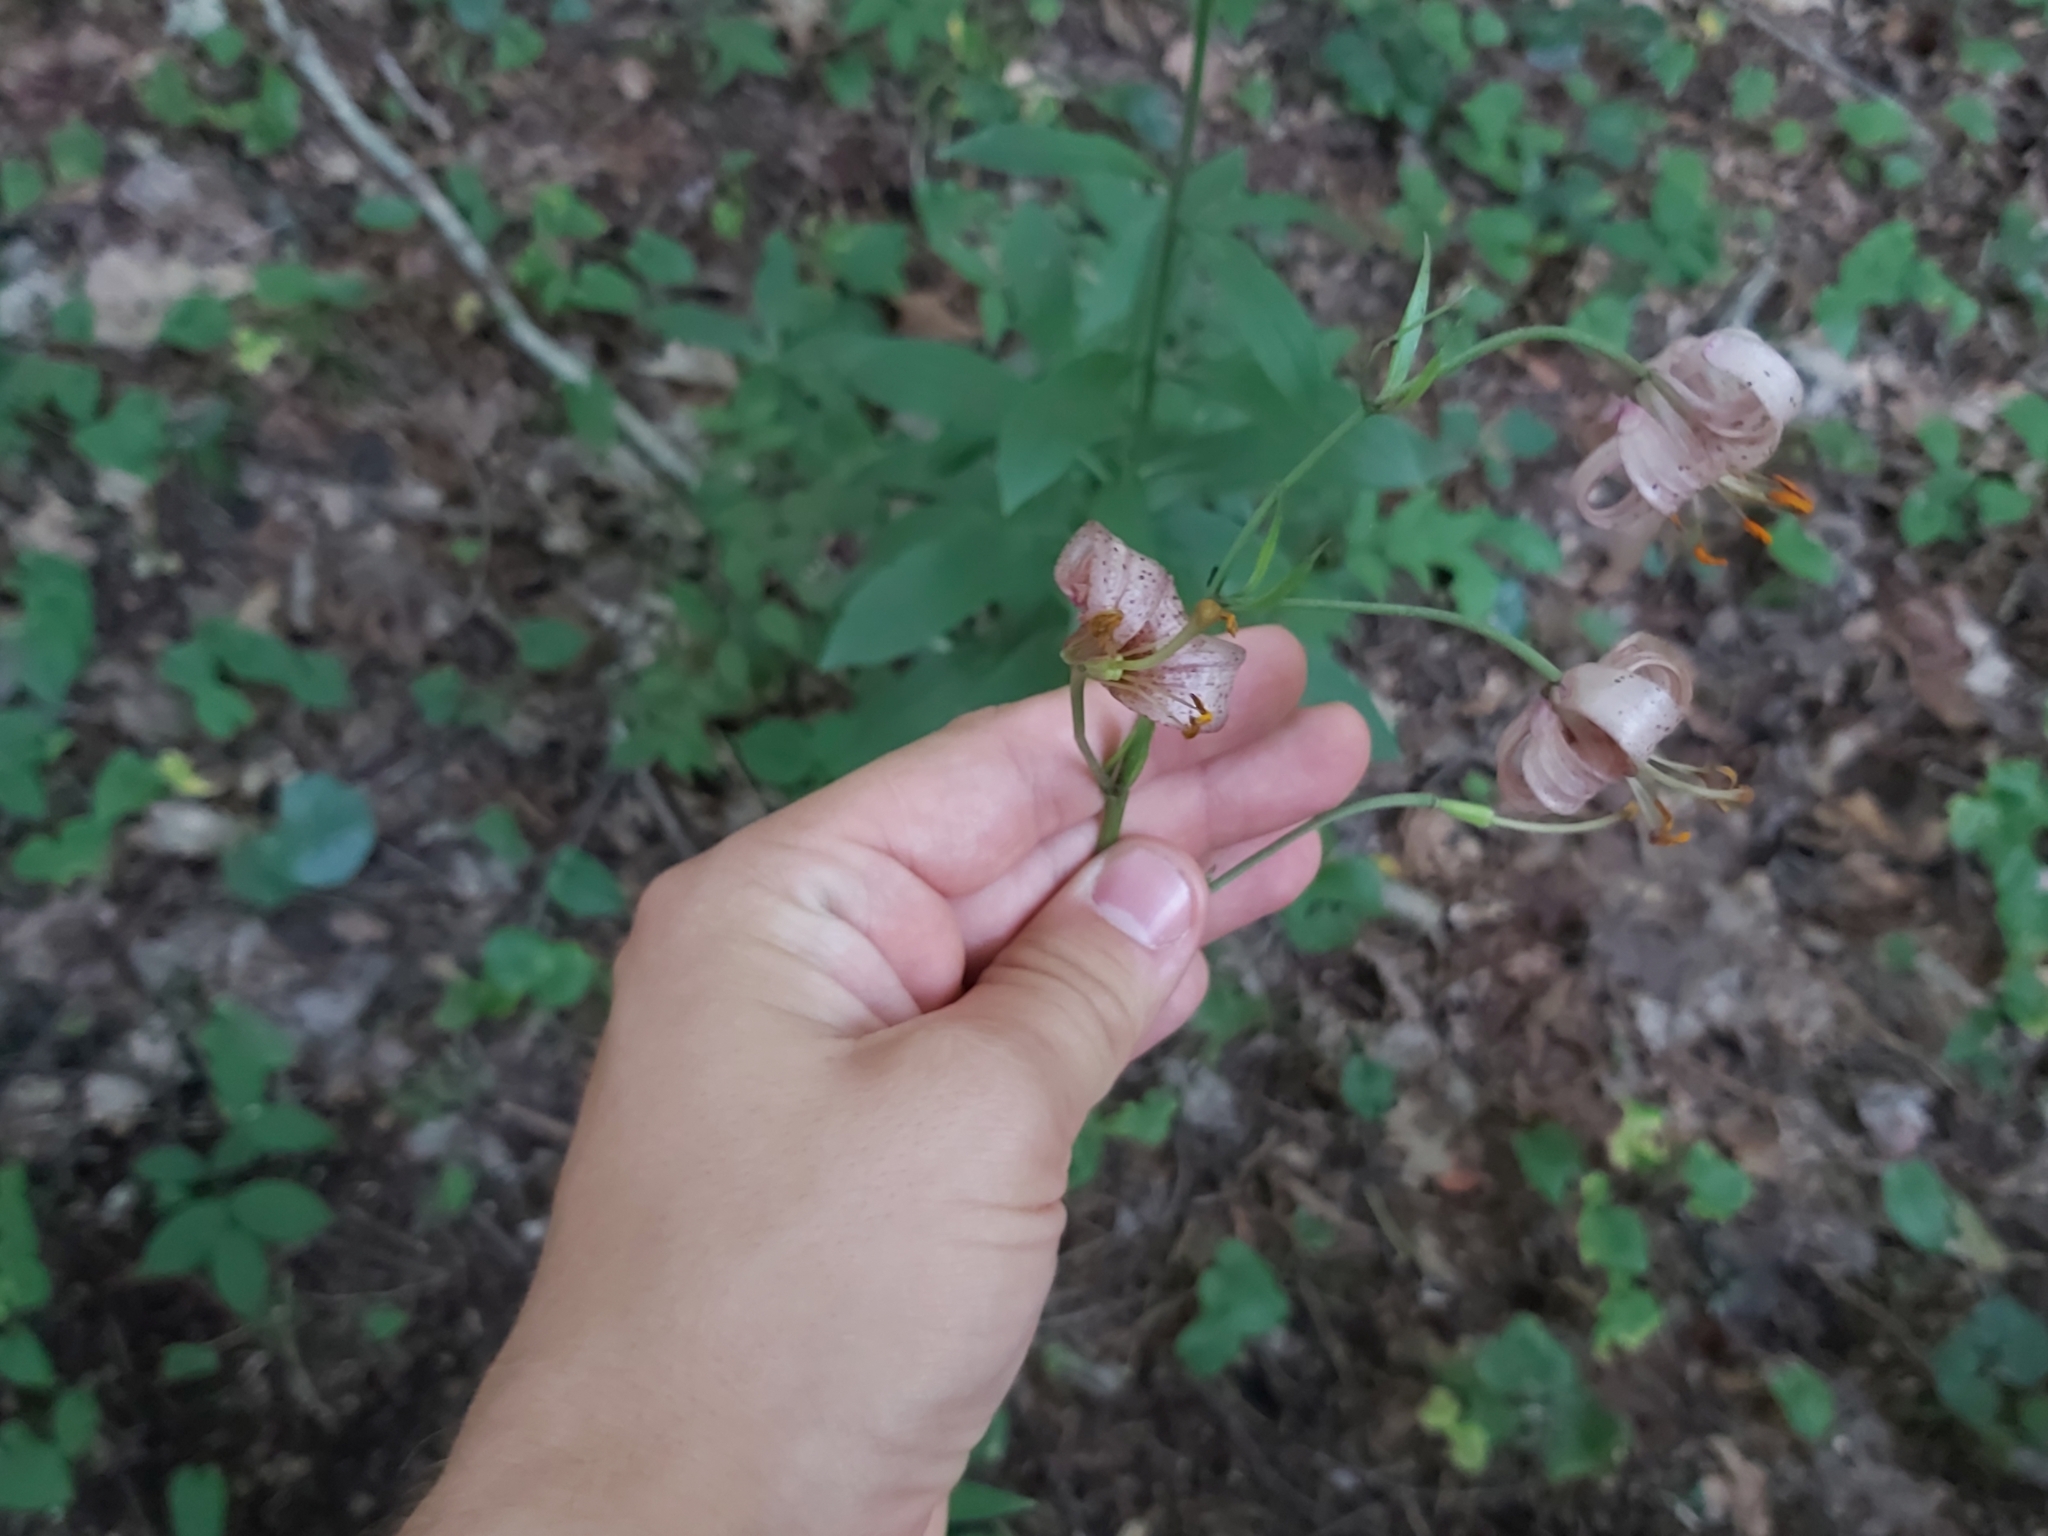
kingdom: Plantae
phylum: Tracheophyta
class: Liliopsida
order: Liliales
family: Liliaceae
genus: Lilium
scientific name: Lilium martagon
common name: Martagon lily
